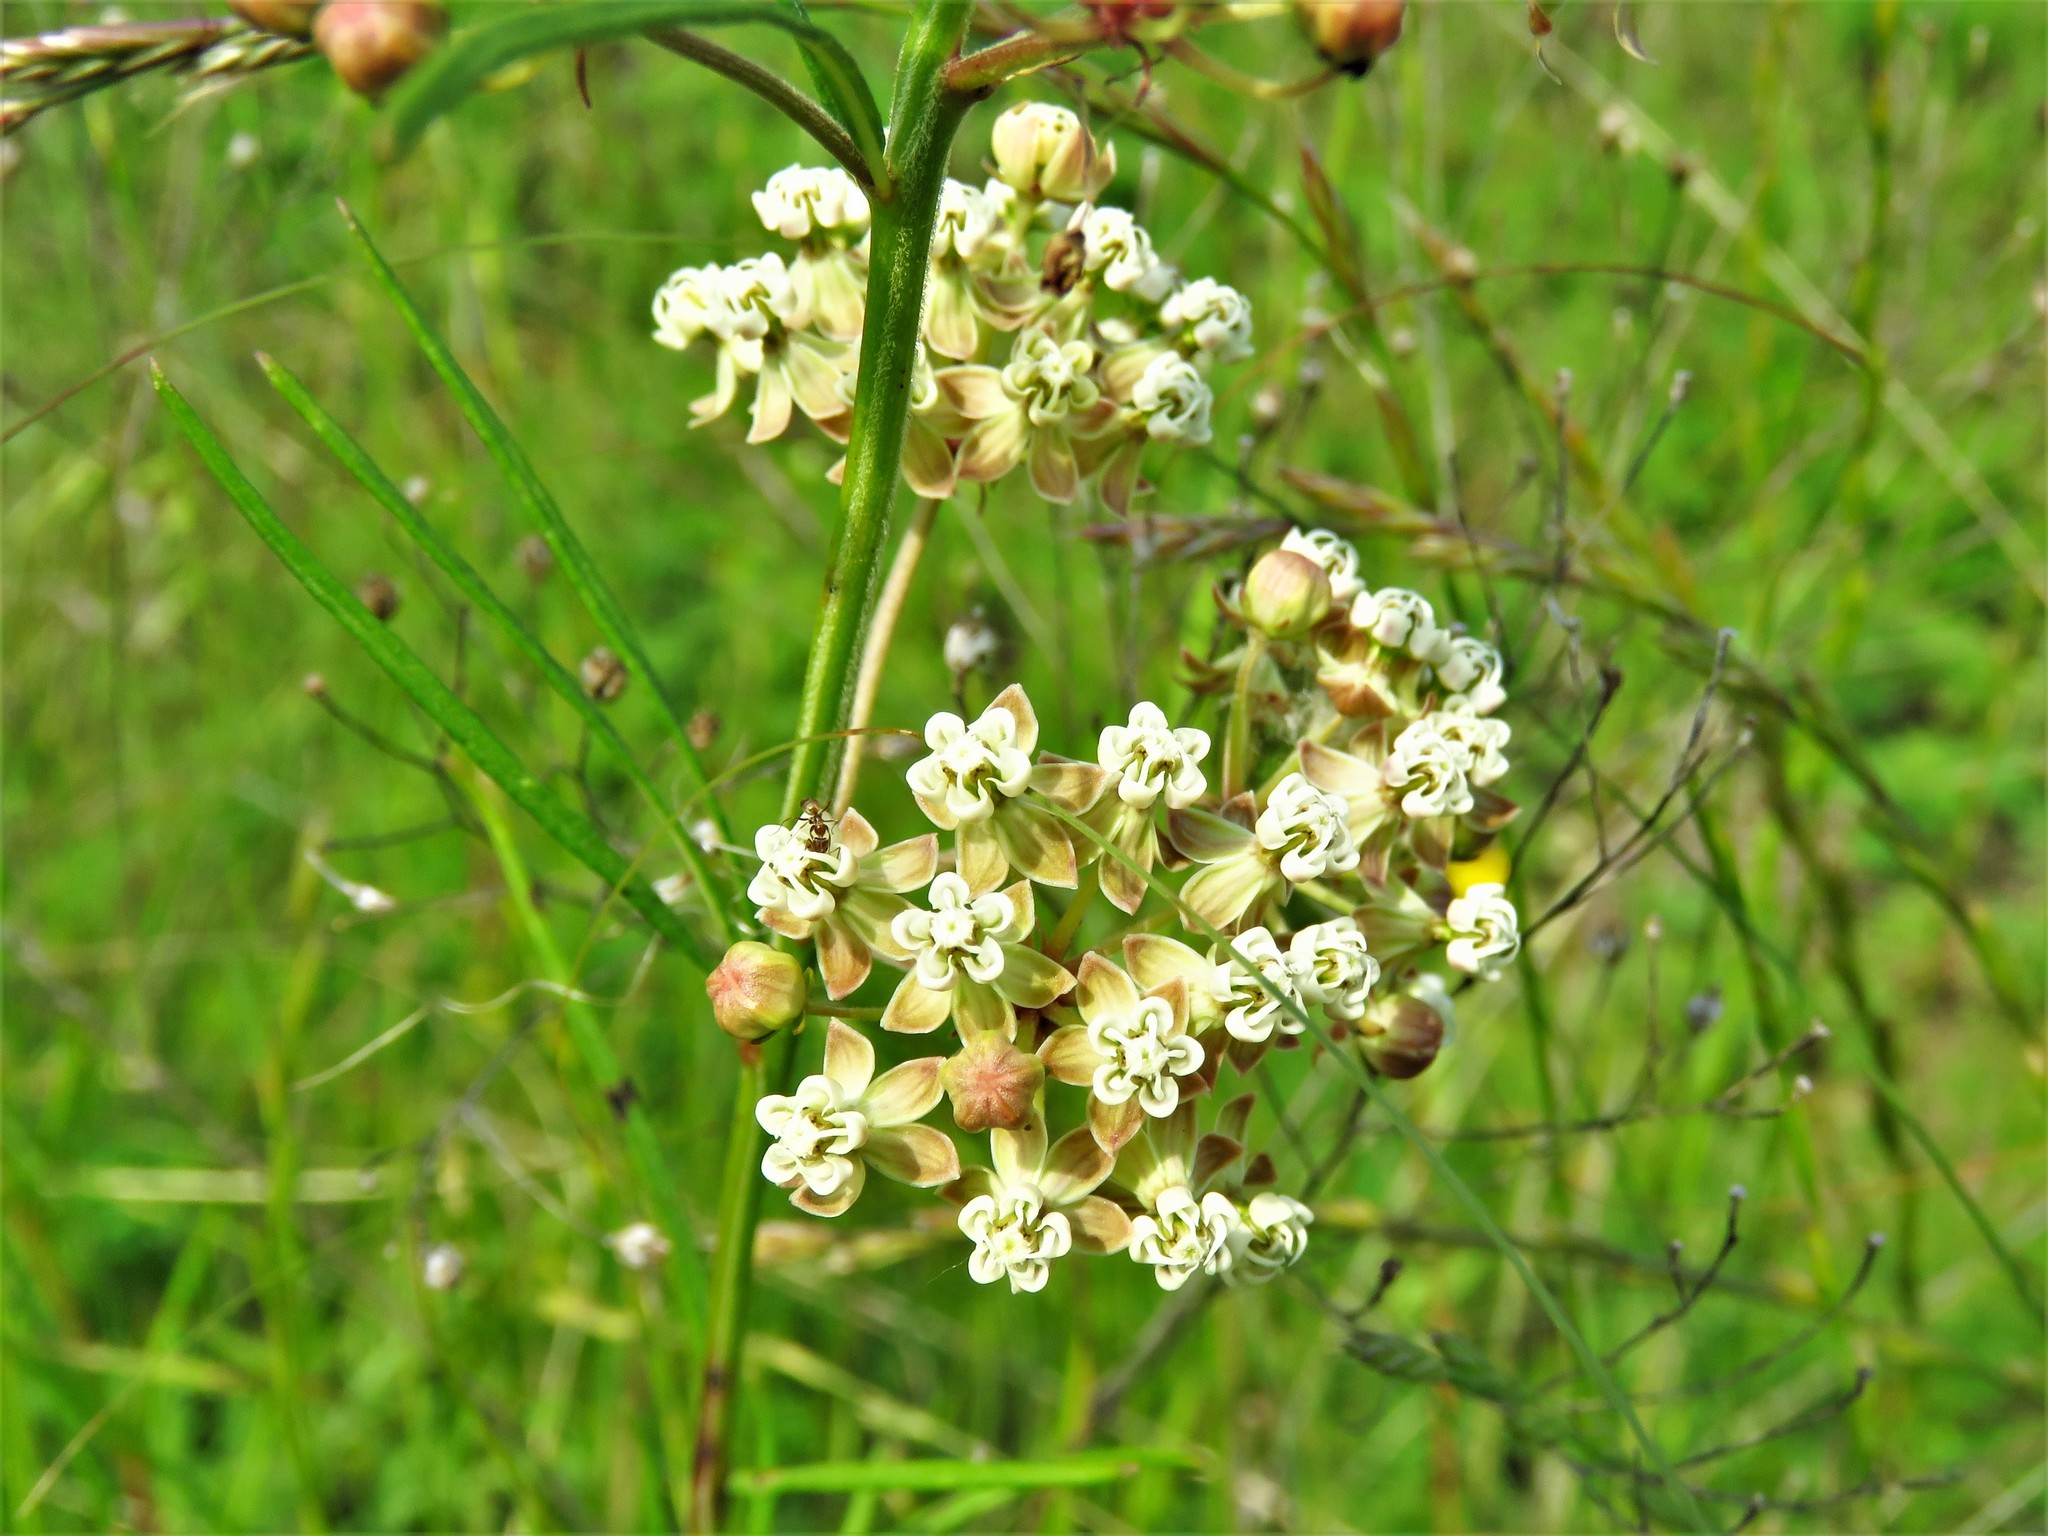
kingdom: Plantae
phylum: Tracheophyta
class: Magnoliopsida
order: Gentianales
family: Apocynaceae
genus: Asclepias
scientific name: Asclepias verticillata
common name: Eastern whorled milkweed
